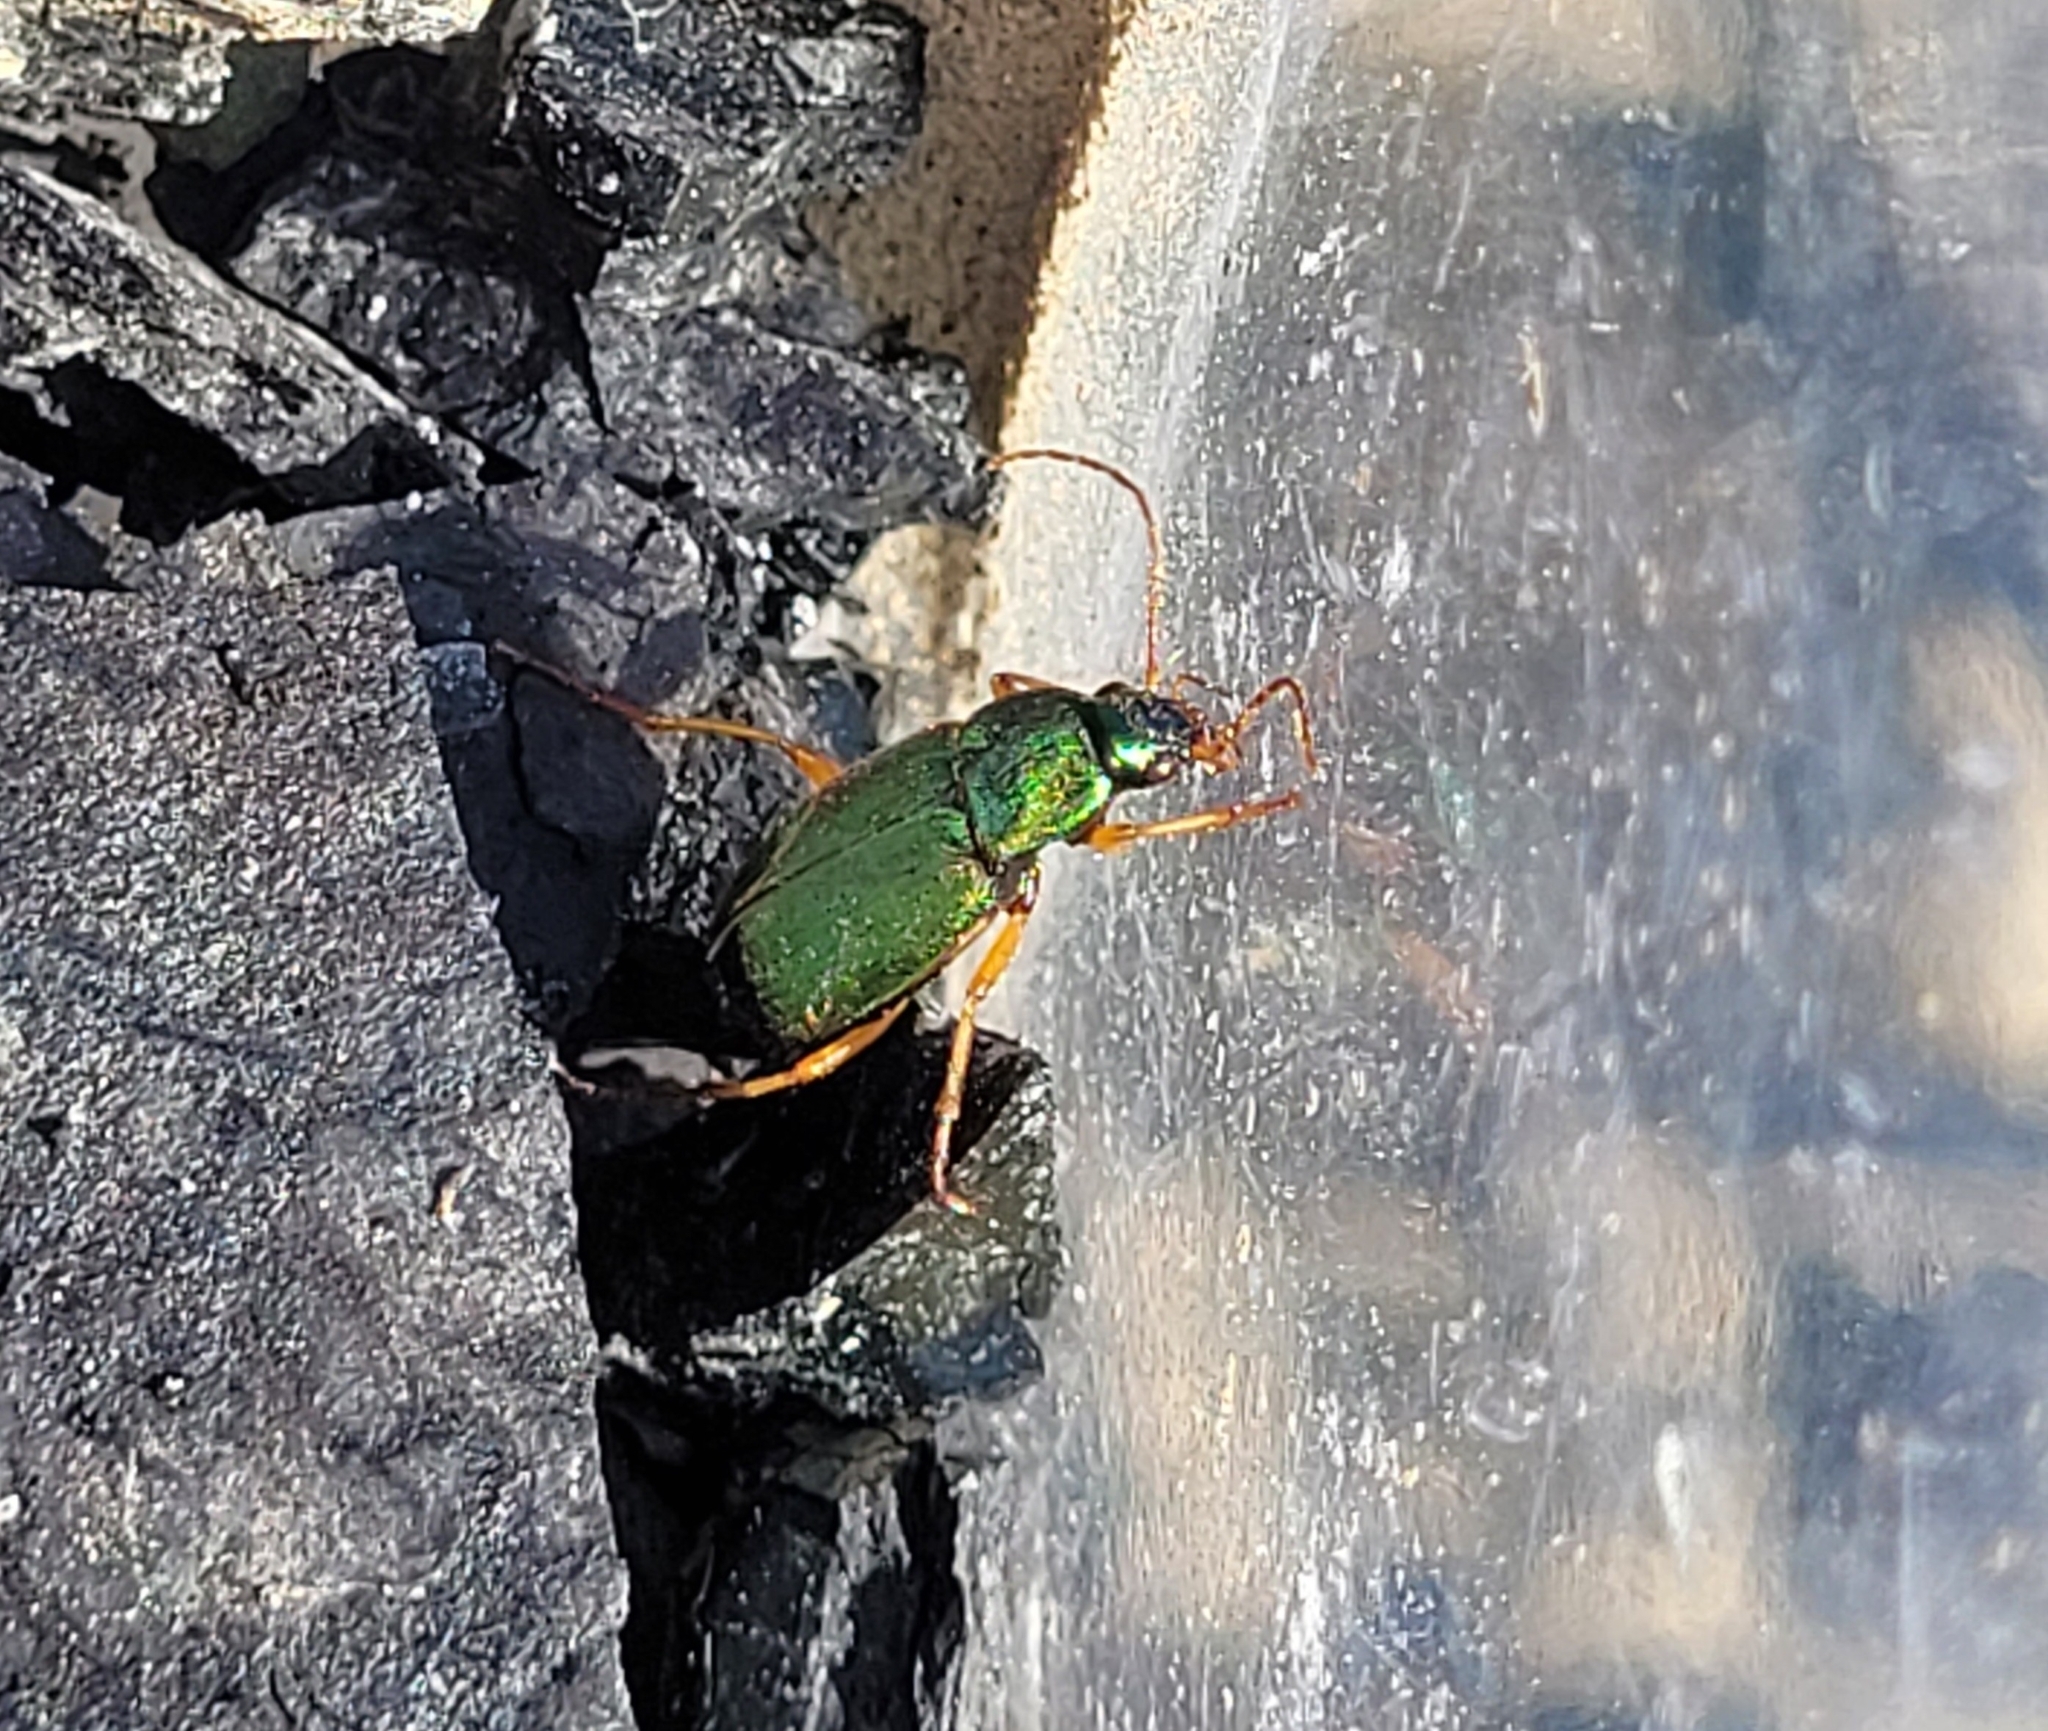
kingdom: Animalia
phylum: Arthropoda
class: Insecta
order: Coleoptera
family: Carabidae
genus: Chlaenius
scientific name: Chlaenius sericeus
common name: Green pubescent ground beetle
